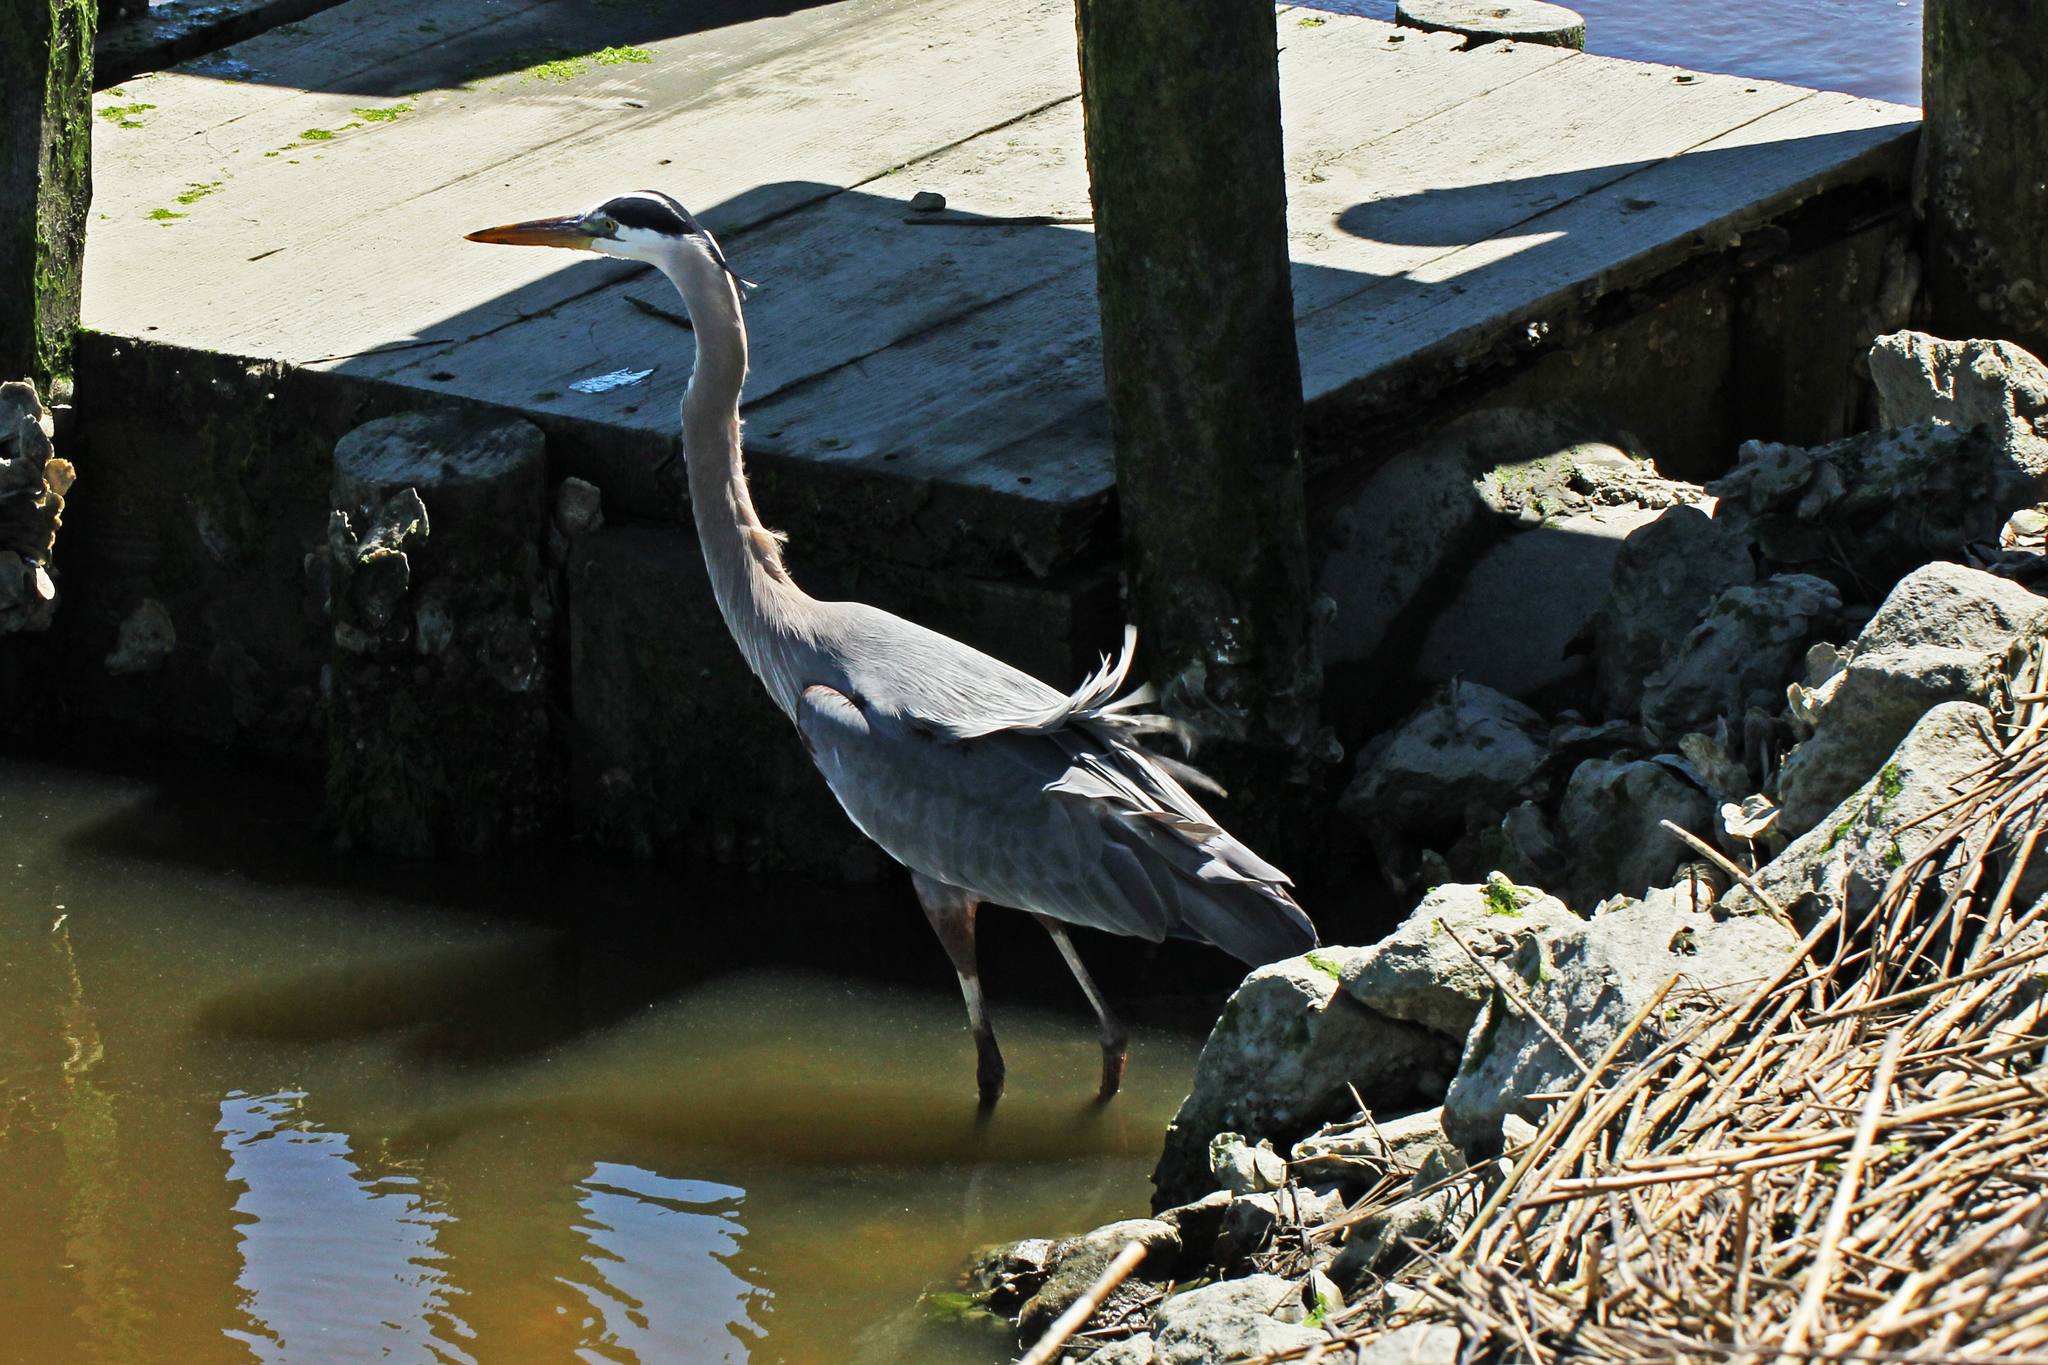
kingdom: Animalia
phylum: Chordata
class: Aves
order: Pelecaniformes
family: Ardeidae
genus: Ardea
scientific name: Ardea herodias
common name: Great blue heron
